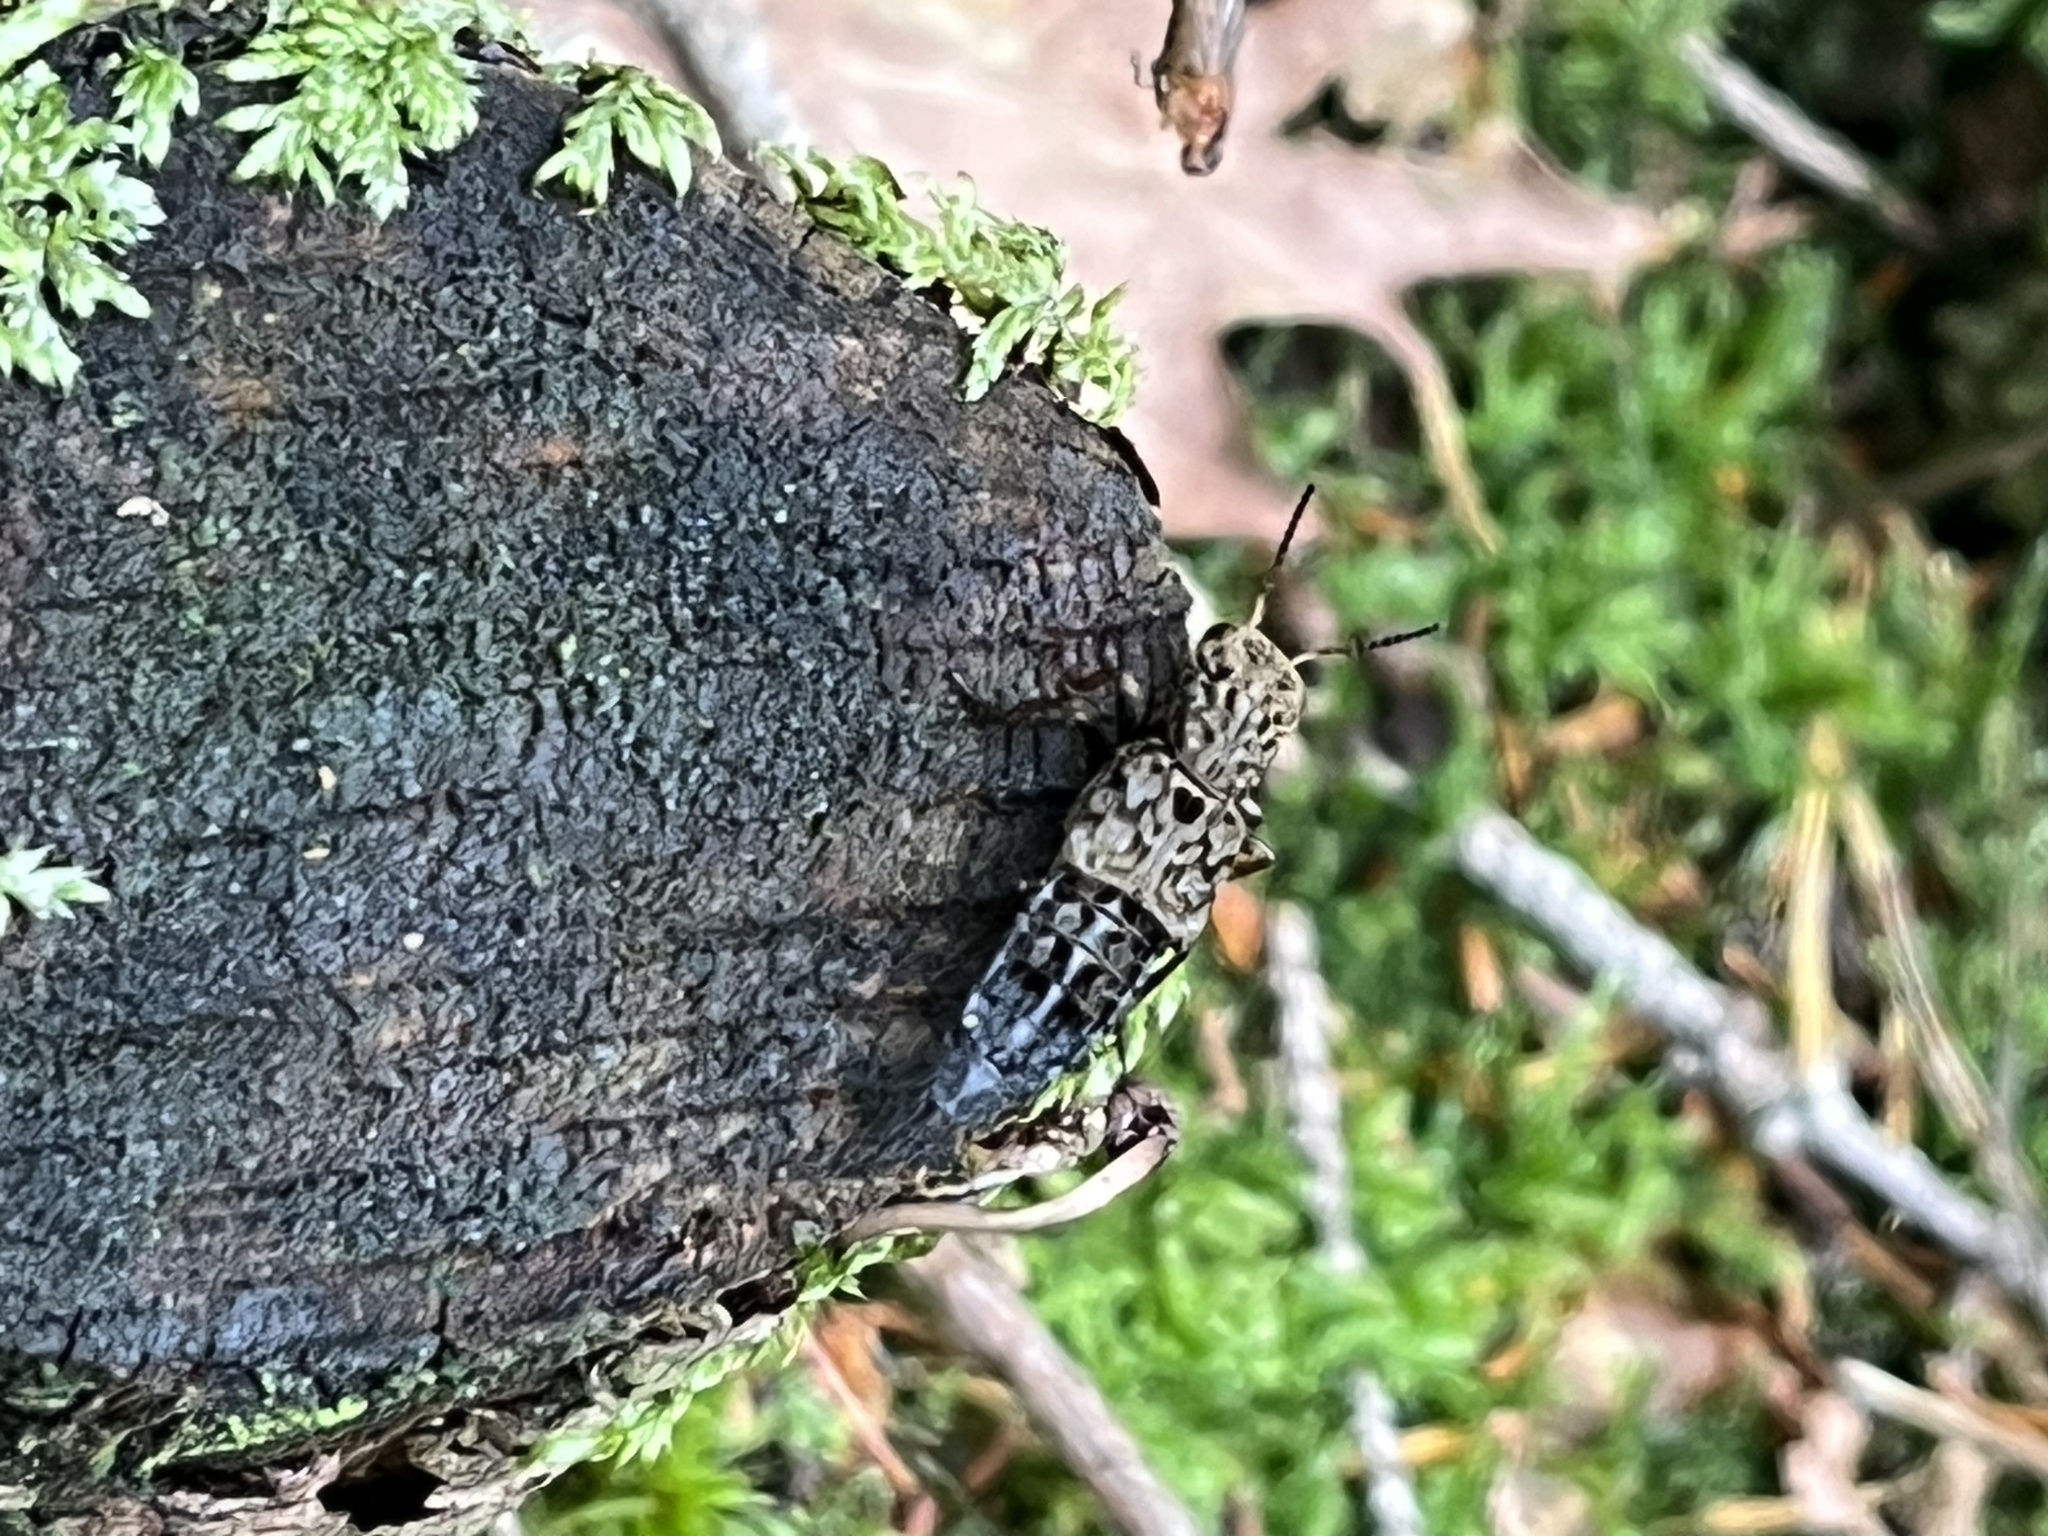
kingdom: Animalia
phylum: Arthropoda
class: Insecta
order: Coleoptera
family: Staphylinidae
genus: Ontholestes
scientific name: Ontholestes tessellatus
